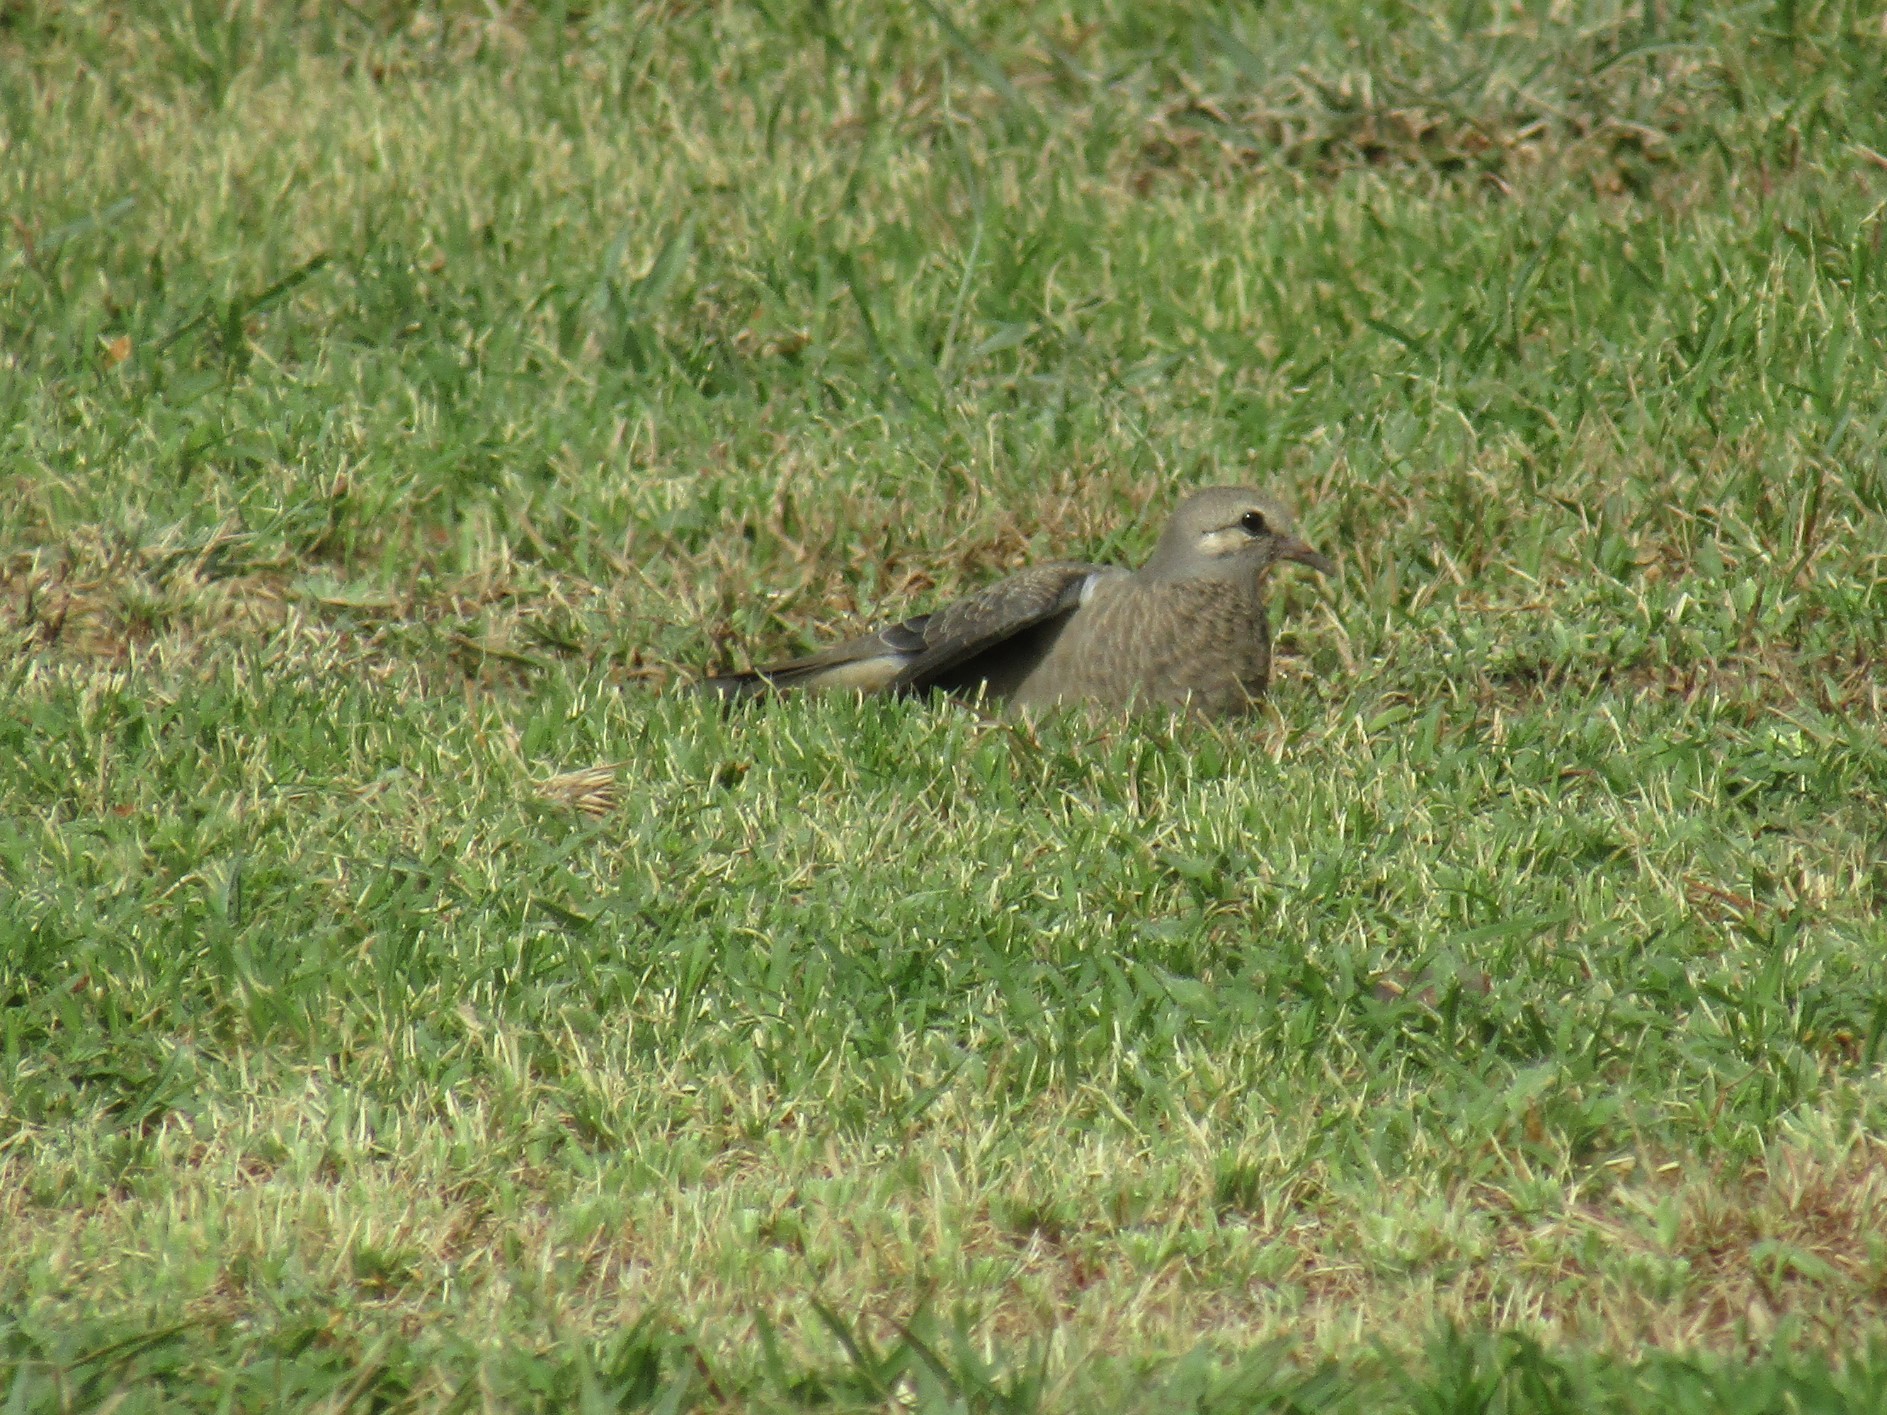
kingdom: Animalia
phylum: Chordata
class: Aves
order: Columbiformes
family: Columbidae
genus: Zenaida
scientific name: Zenaida auriculata
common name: Eared dove
